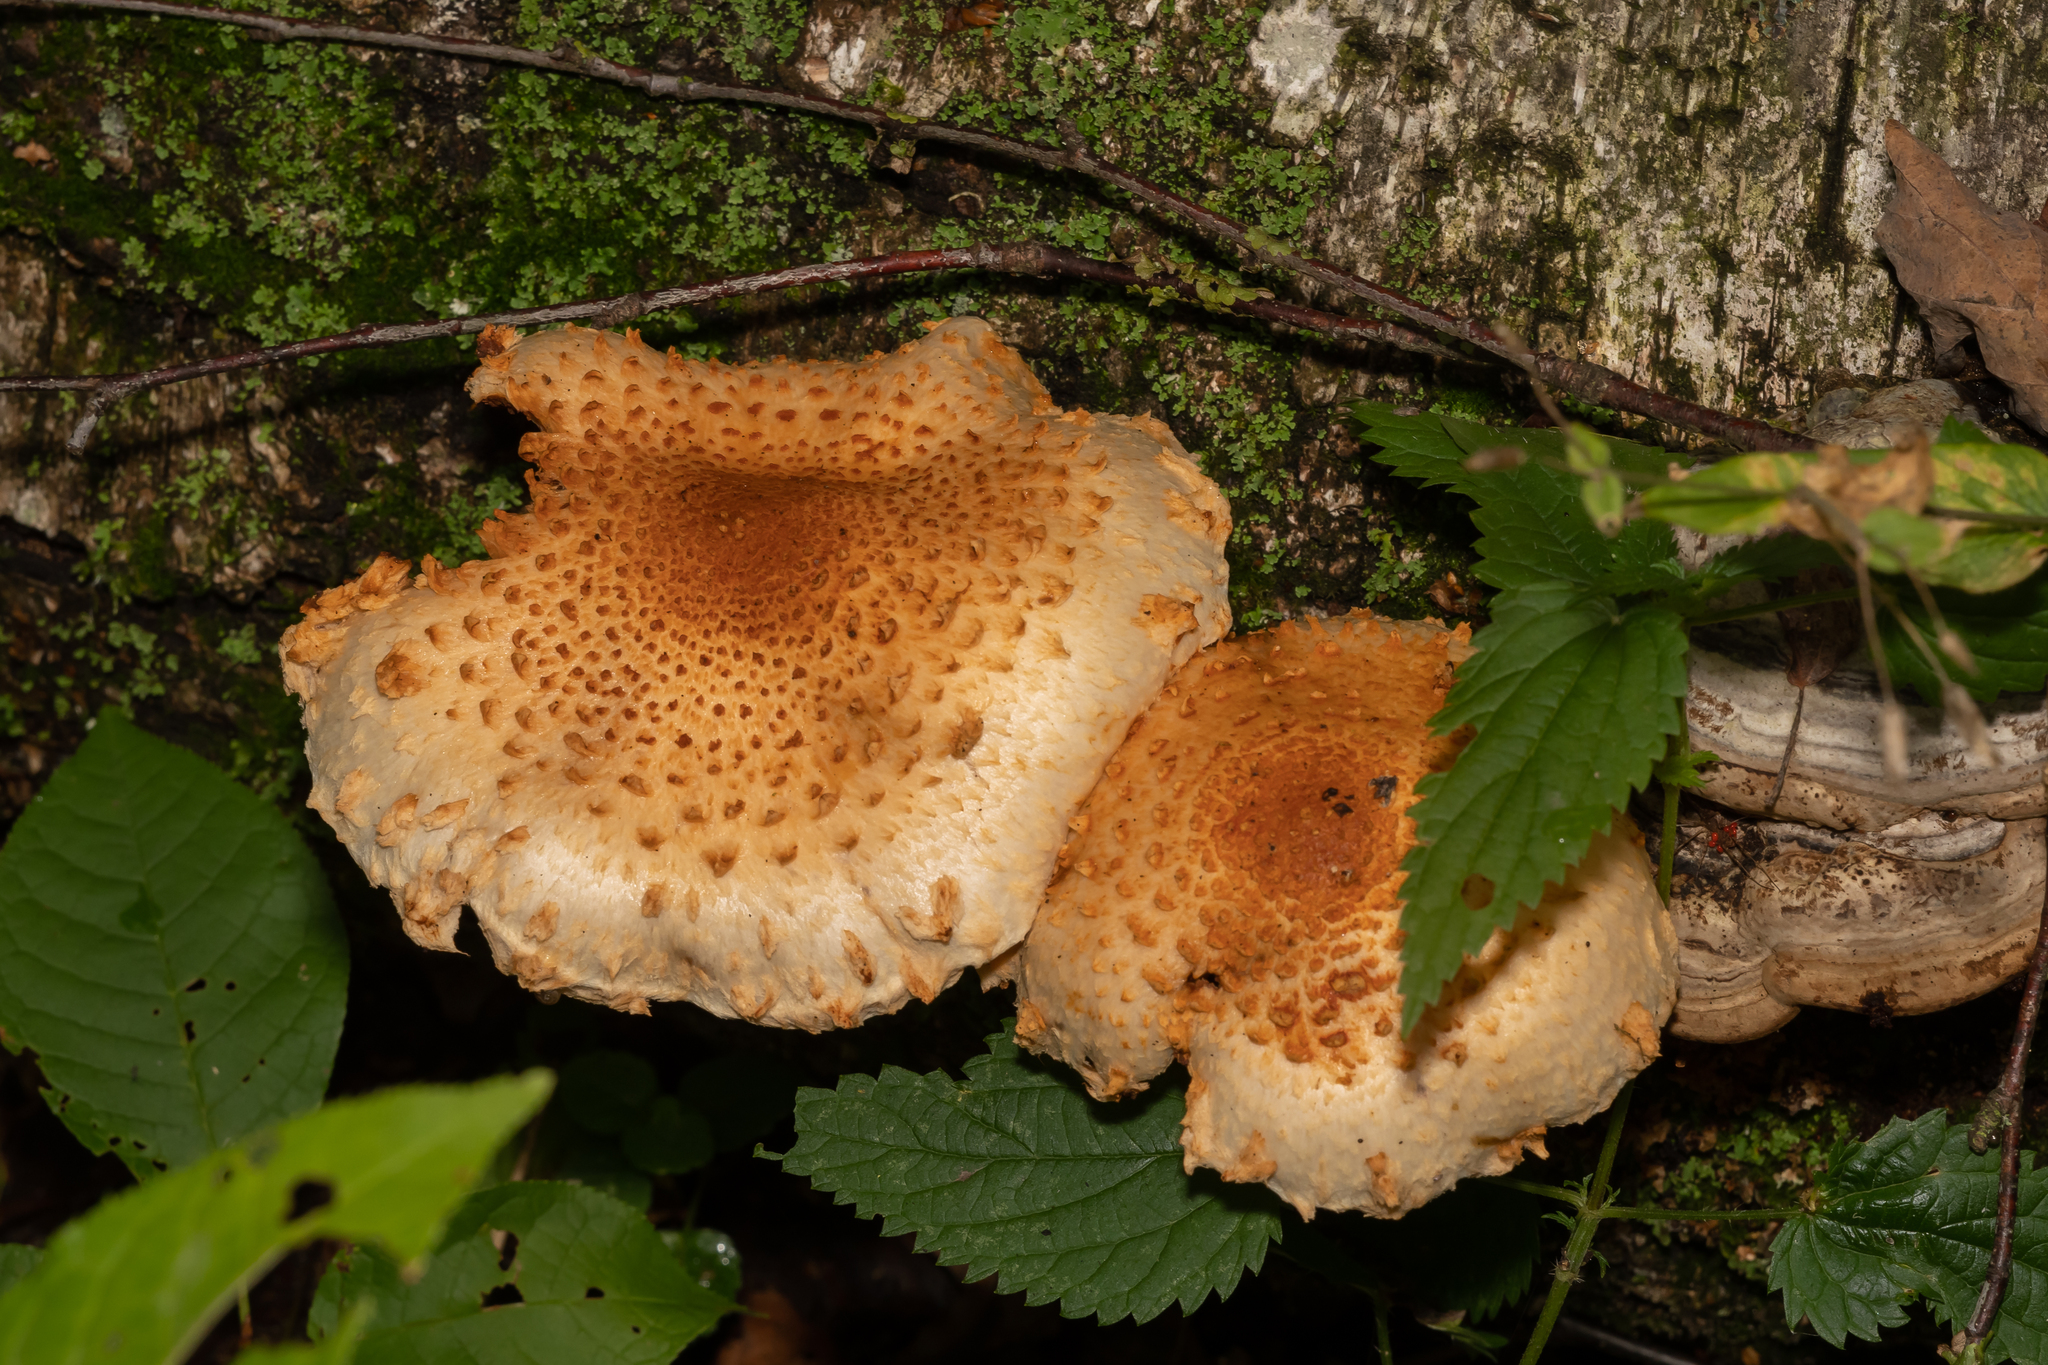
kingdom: Fungi
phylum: Basidiomycota
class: Agaricomycetes
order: Agaricales
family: Strophariaceae
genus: Pholiota
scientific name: Pholiota squarrosa
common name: Shaggy pholiota
